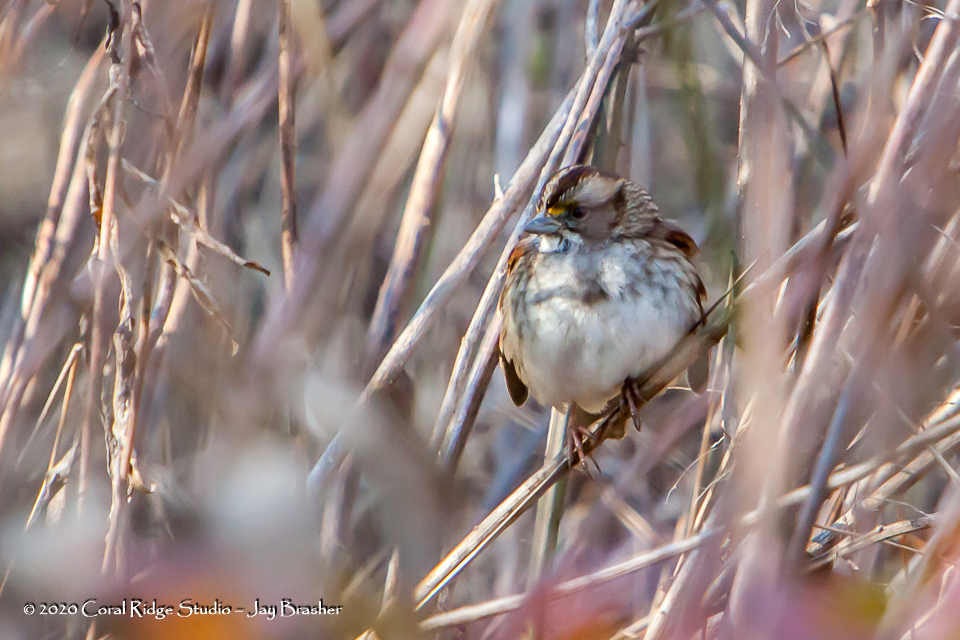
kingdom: Animalia
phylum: Chordata
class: Aves
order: Passeriformes
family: Passerellidae
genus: Zonotrichia
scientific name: Zonotrichia albicollis
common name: White-throated sparrow
